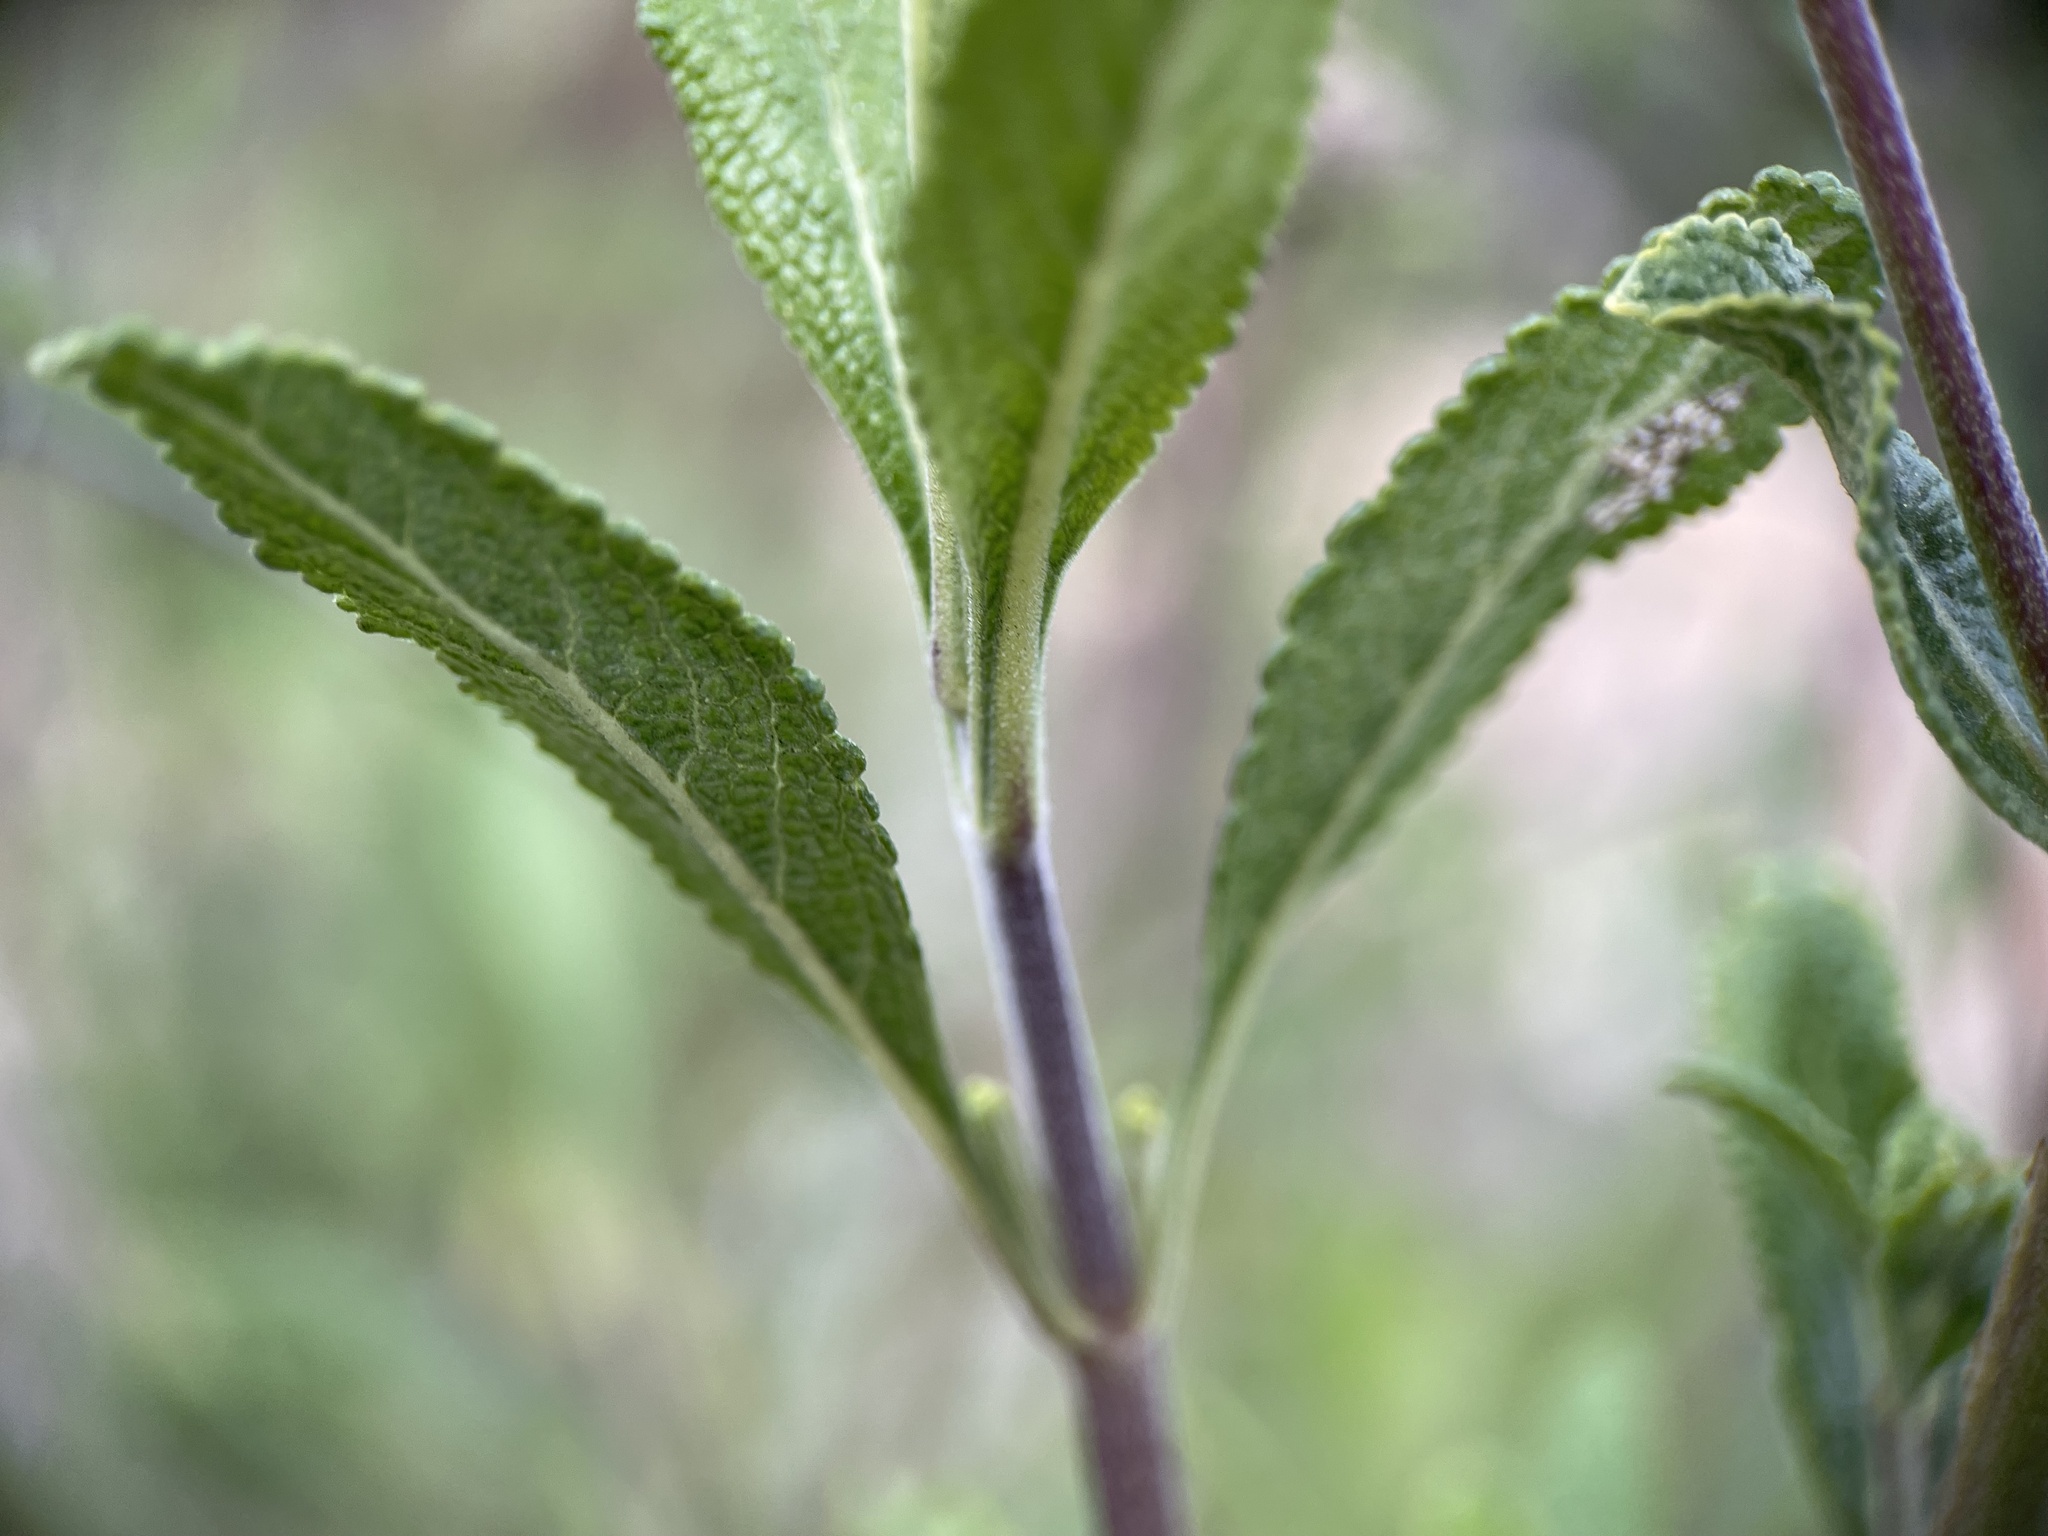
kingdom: Plantae
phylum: Tracheophyta
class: Magnoliopsida
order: Lamiales
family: Lamiaceae
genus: Salvia
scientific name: Salvia mellifera
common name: Black sage
